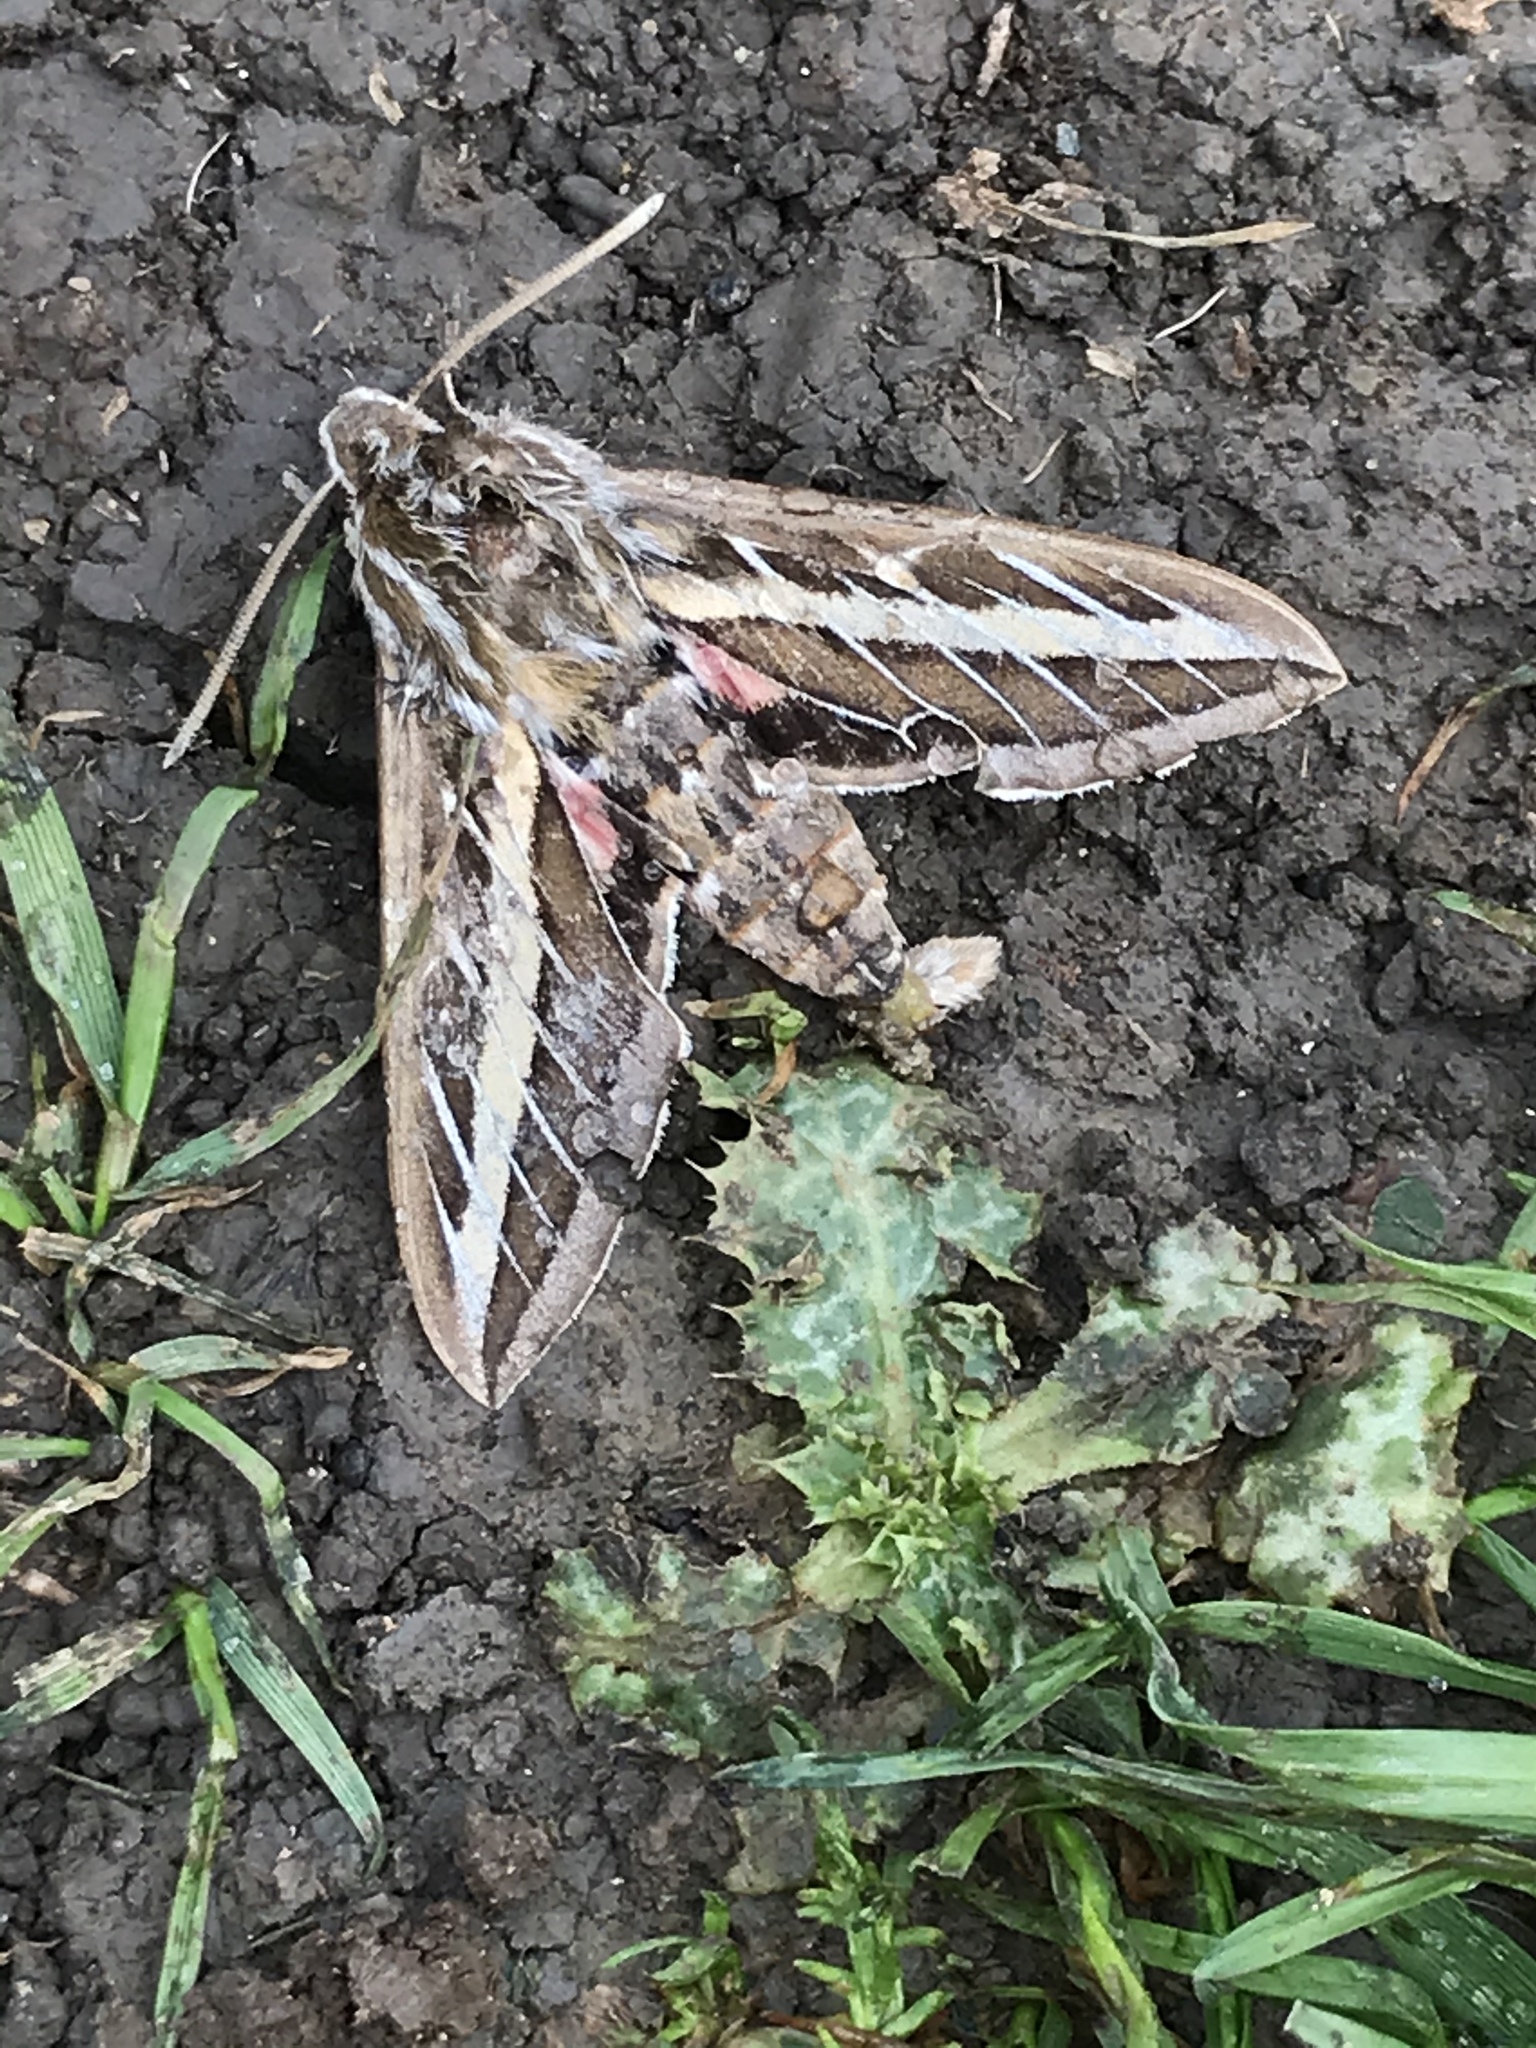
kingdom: Animalia
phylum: Arthropoda
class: Insecta
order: Lepidoptera
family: Sphingidae
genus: Hyles
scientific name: Hyles lineata
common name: White-lined sphinx
